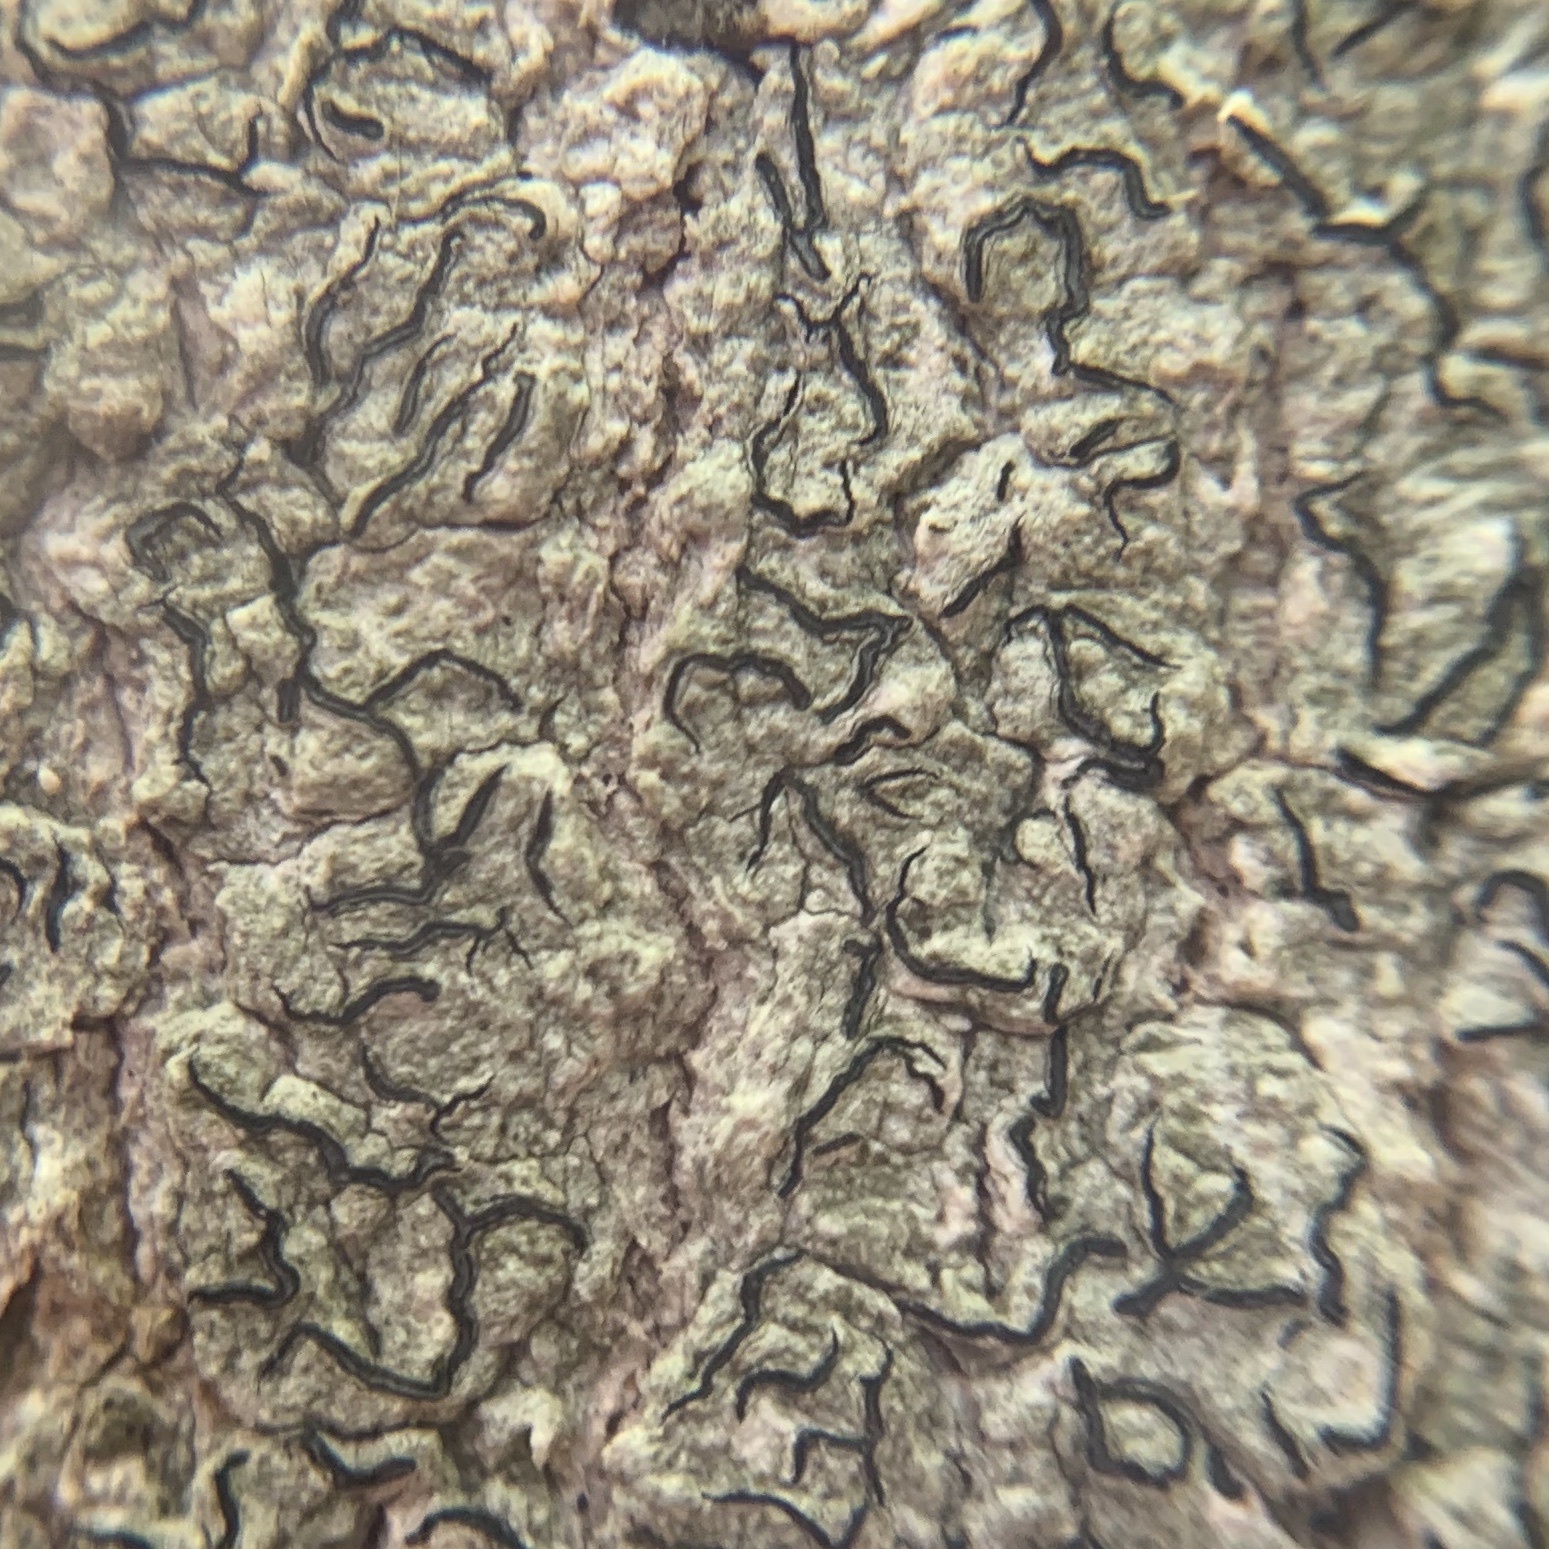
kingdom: Fungi
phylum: Ascomycota
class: Lecanoromycetes
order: Ostropales
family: Graphidaceae
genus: Graphis
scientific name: Graphis scripta
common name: Script lichen
